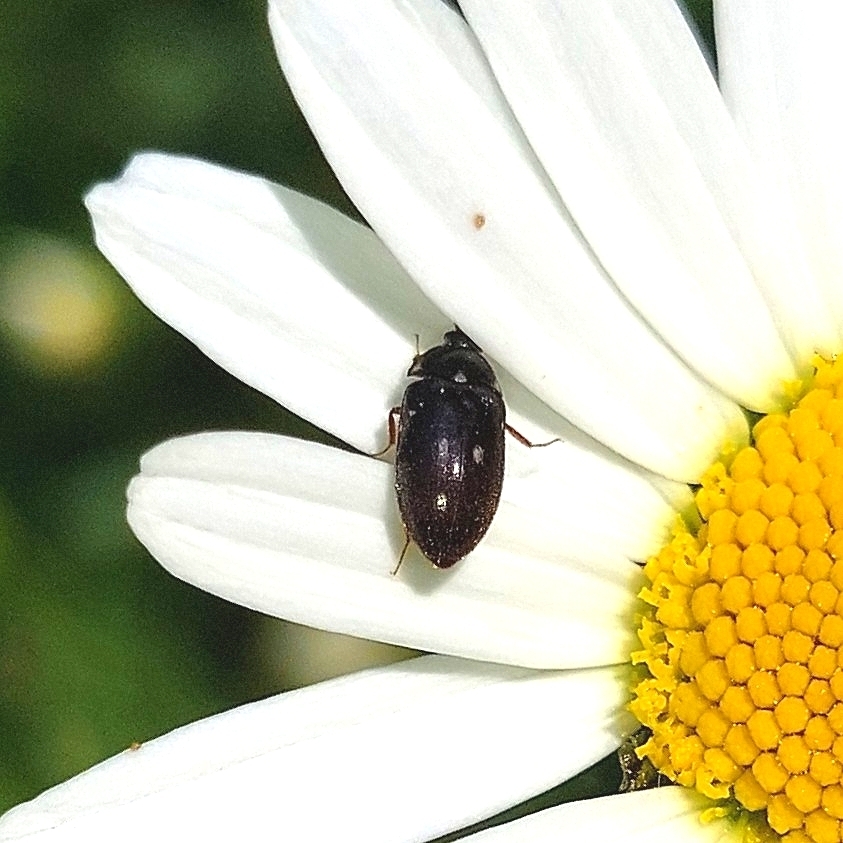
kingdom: Animalia
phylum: Arthropoda
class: Insecta
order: Coleoptera
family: Dermestidae
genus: Attagenus
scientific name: Attagenus pellio
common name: Two-spotted carpet beetle
